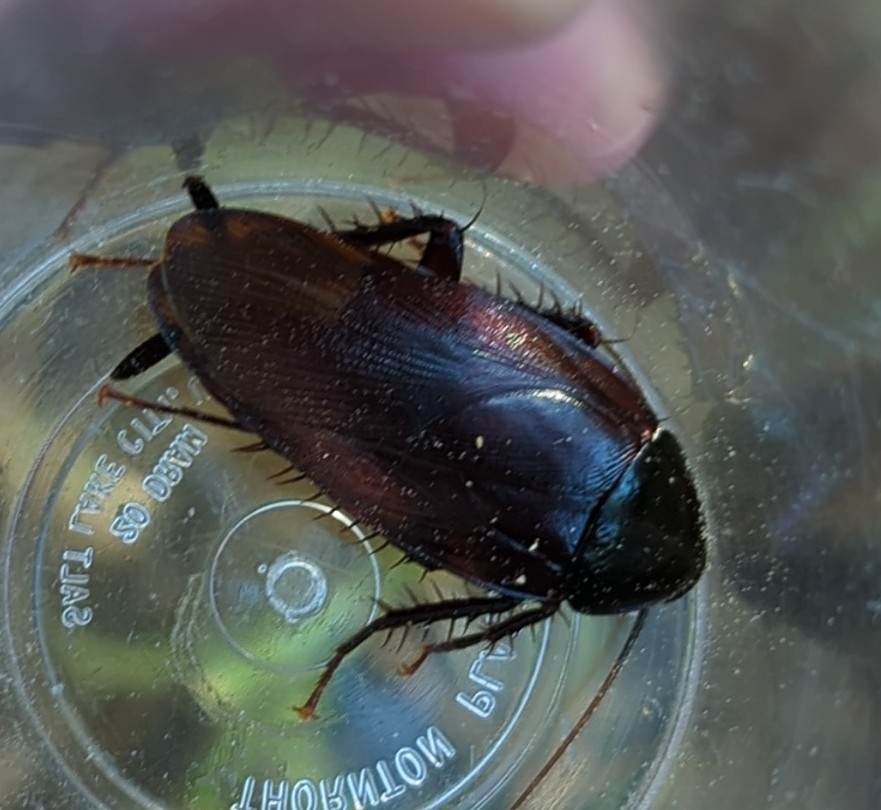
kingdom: Animalia
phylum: Arthropoda
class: Insecta
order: Blattodea
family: Blattidae
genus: Periplaneta
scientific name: Periplaneta fuliginosa
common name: Smokeybrown cockroad
